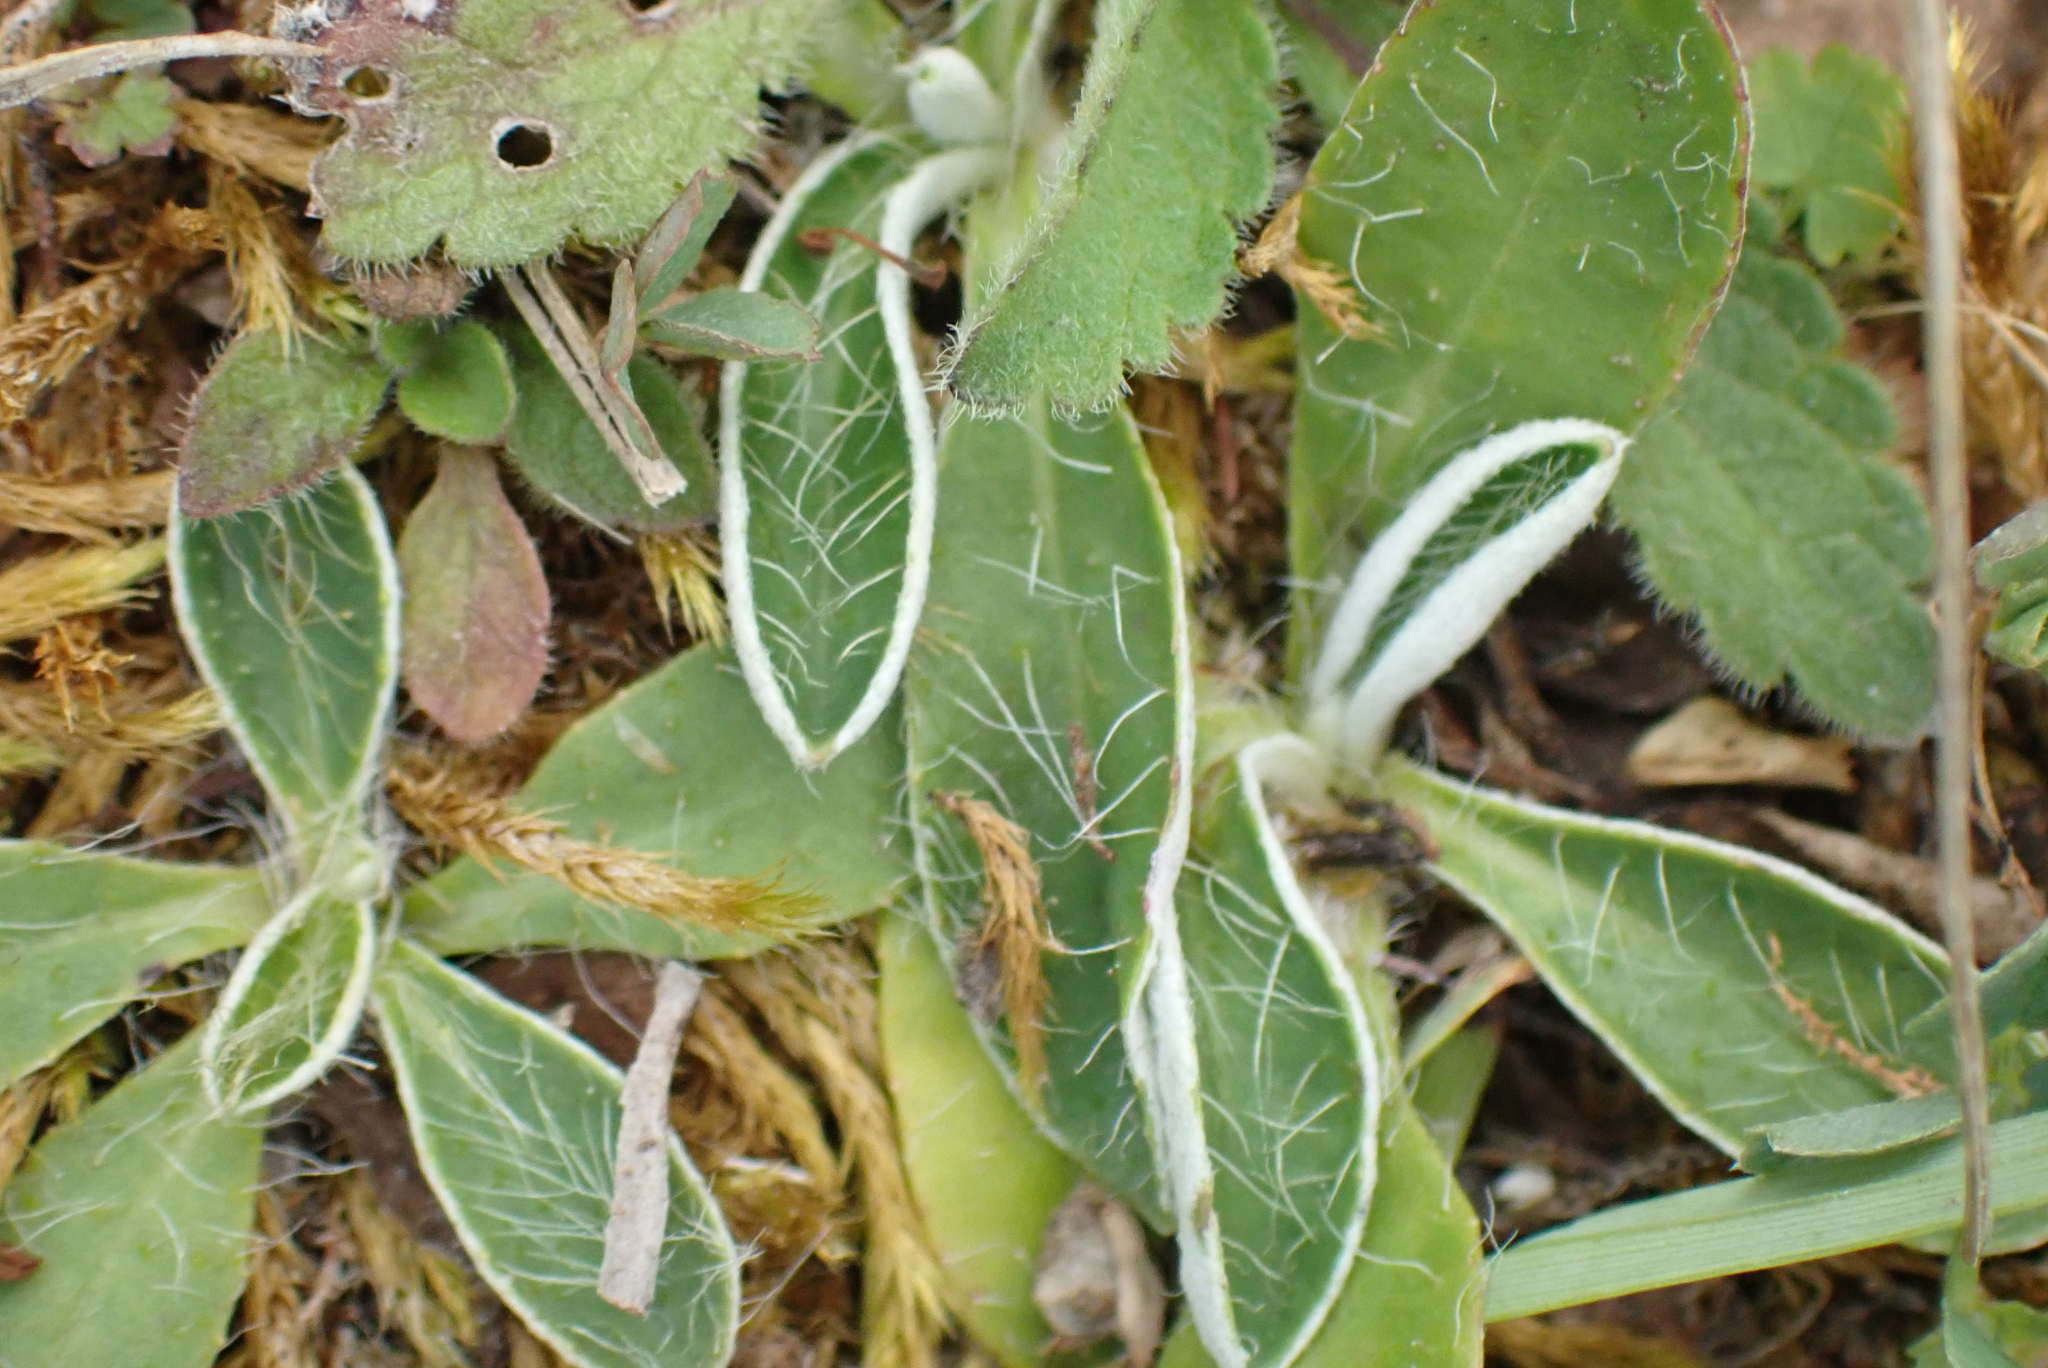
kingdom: Plantae
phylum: Tracheophyta
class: Magnoliopsida
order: Asterales
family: Asteraceae
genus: Pilosella
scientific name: Pilosella officinarum
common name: Mouse-ear hawkweed
